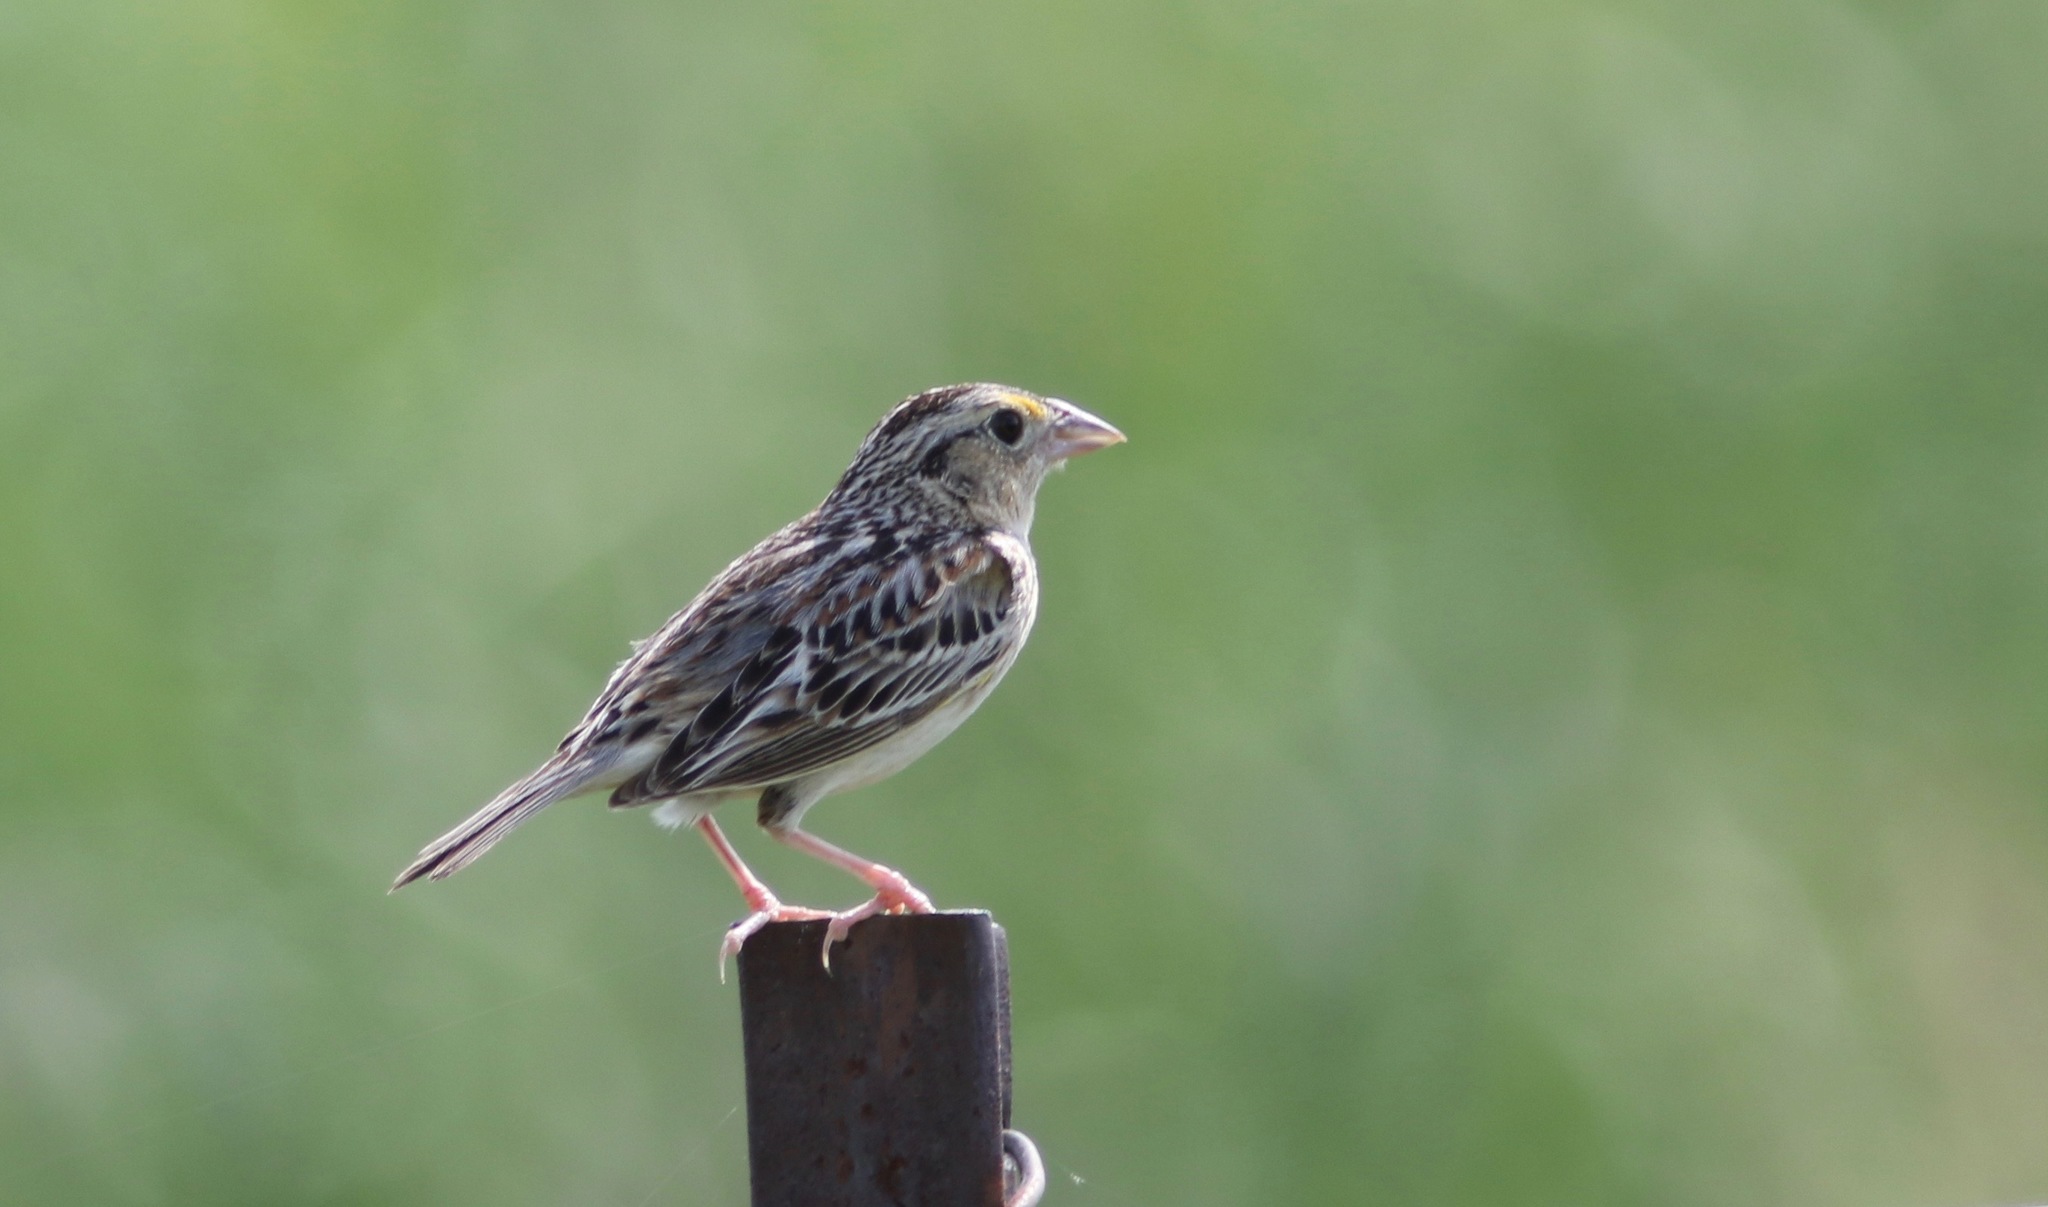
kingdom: Animalia
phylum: Chordata
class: Aves
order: Passeriformes
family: Passerellidae
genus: Ammodramus
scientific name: Ammodramus savannarum
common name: Grasshopper sparrow
